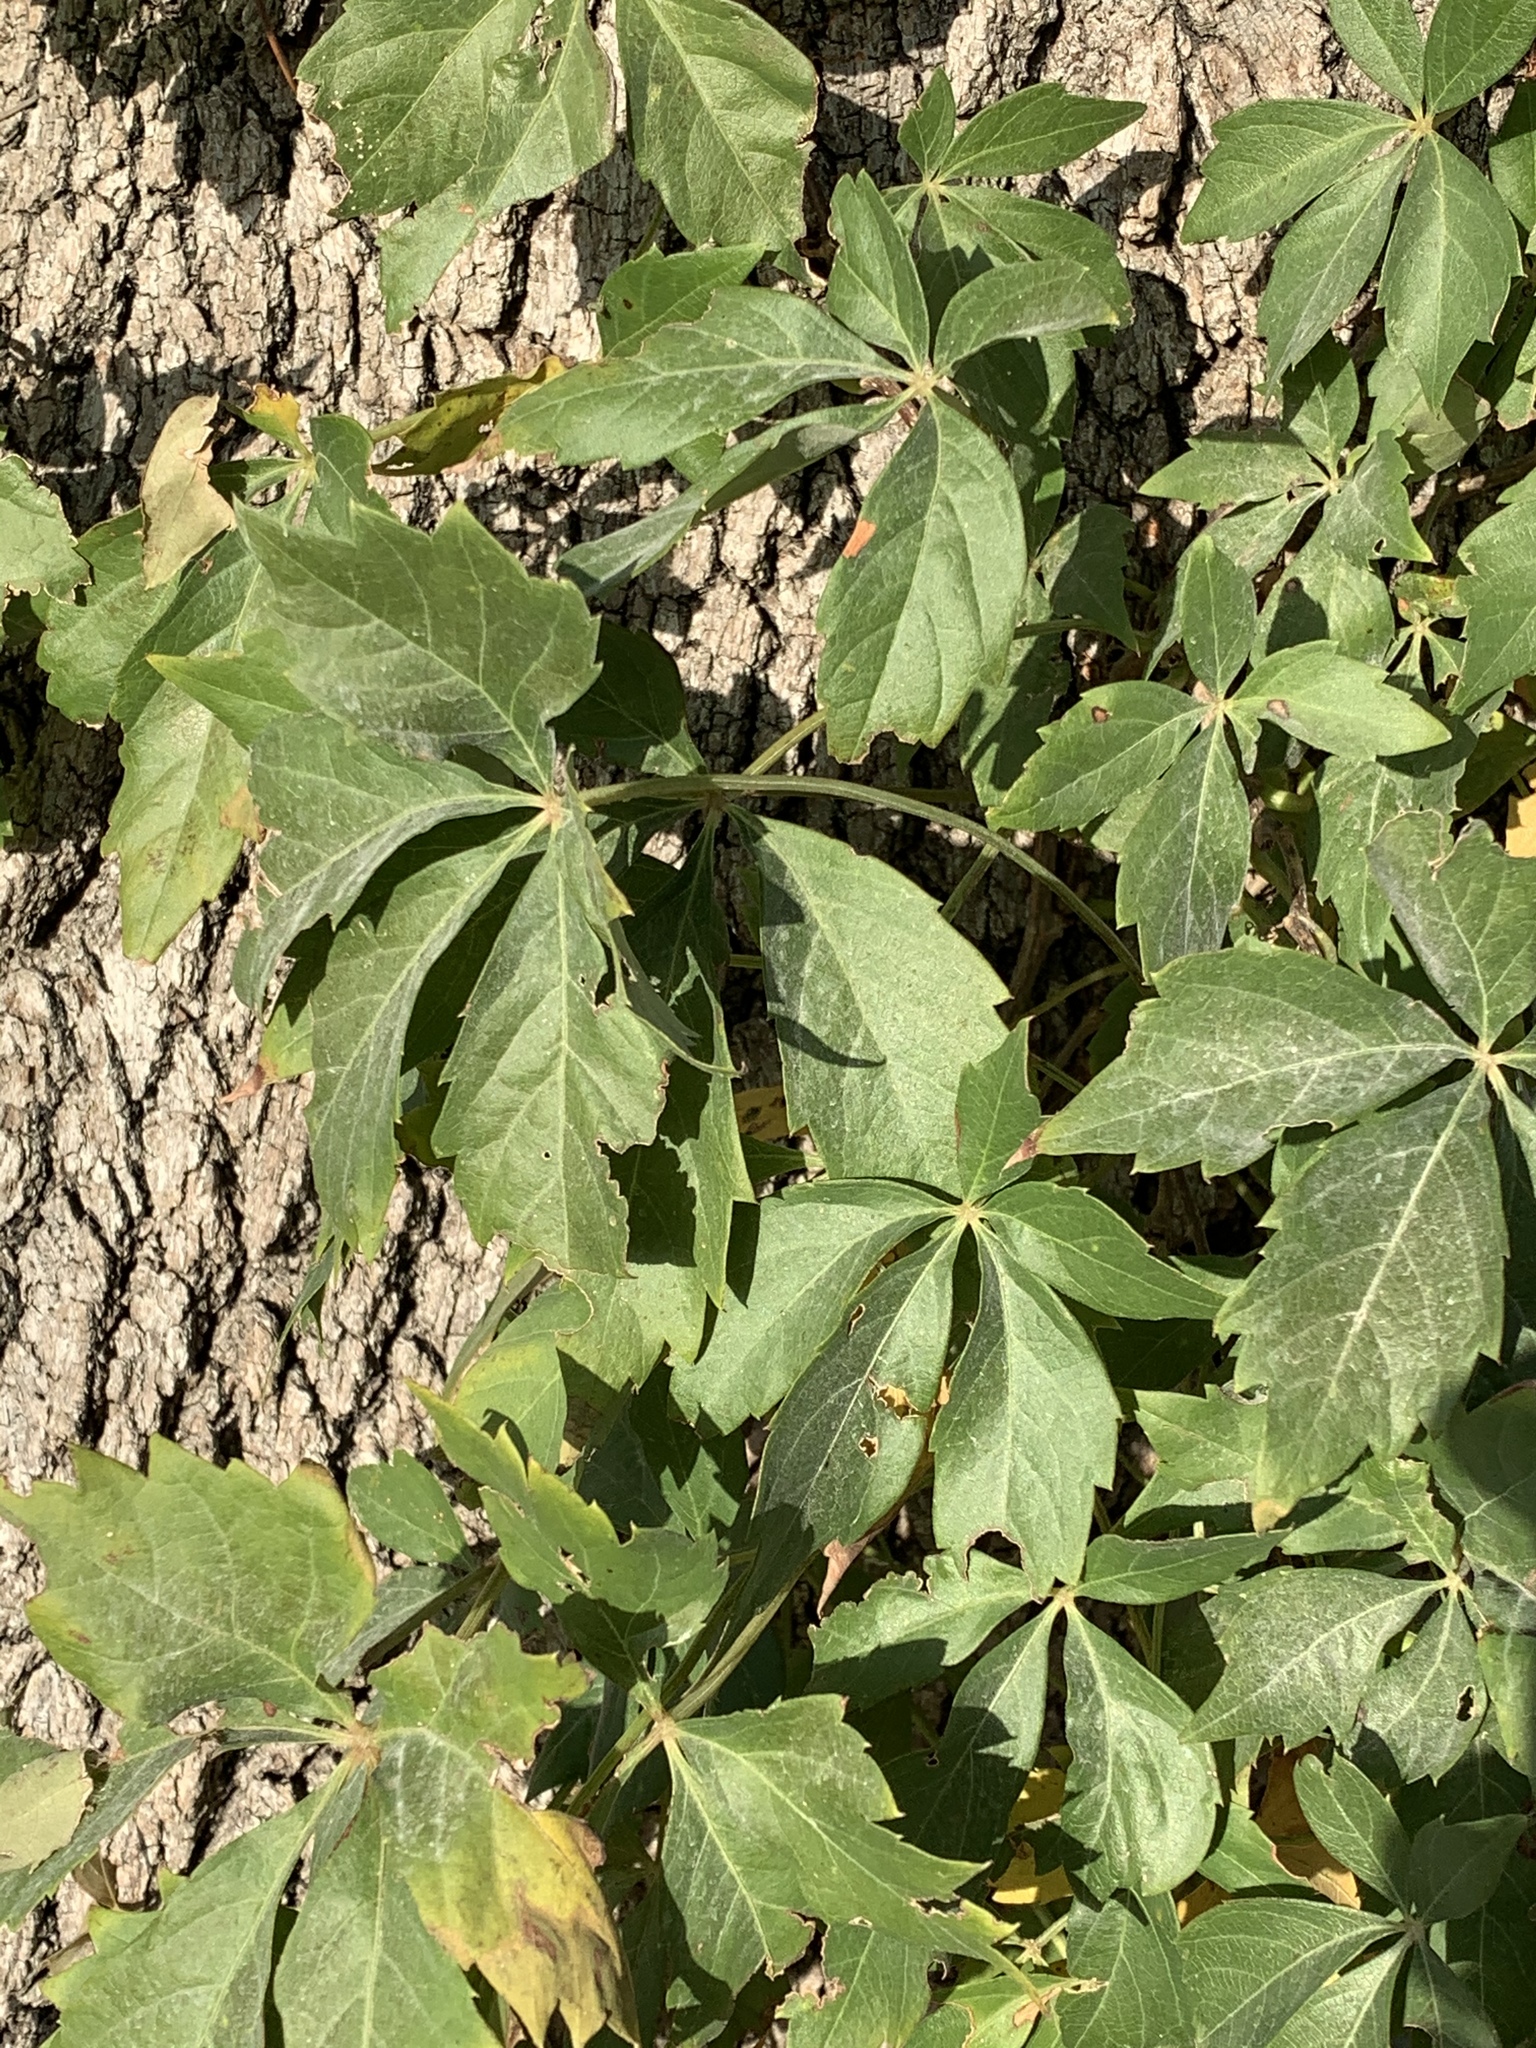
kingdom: Plantae
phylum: Tracheophyta
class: Magnoliopsida
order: Vitales
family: Vitaceae
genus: Parthenocissus
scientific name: Parthenocissus quinquefolia
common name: Virginia-creeper
